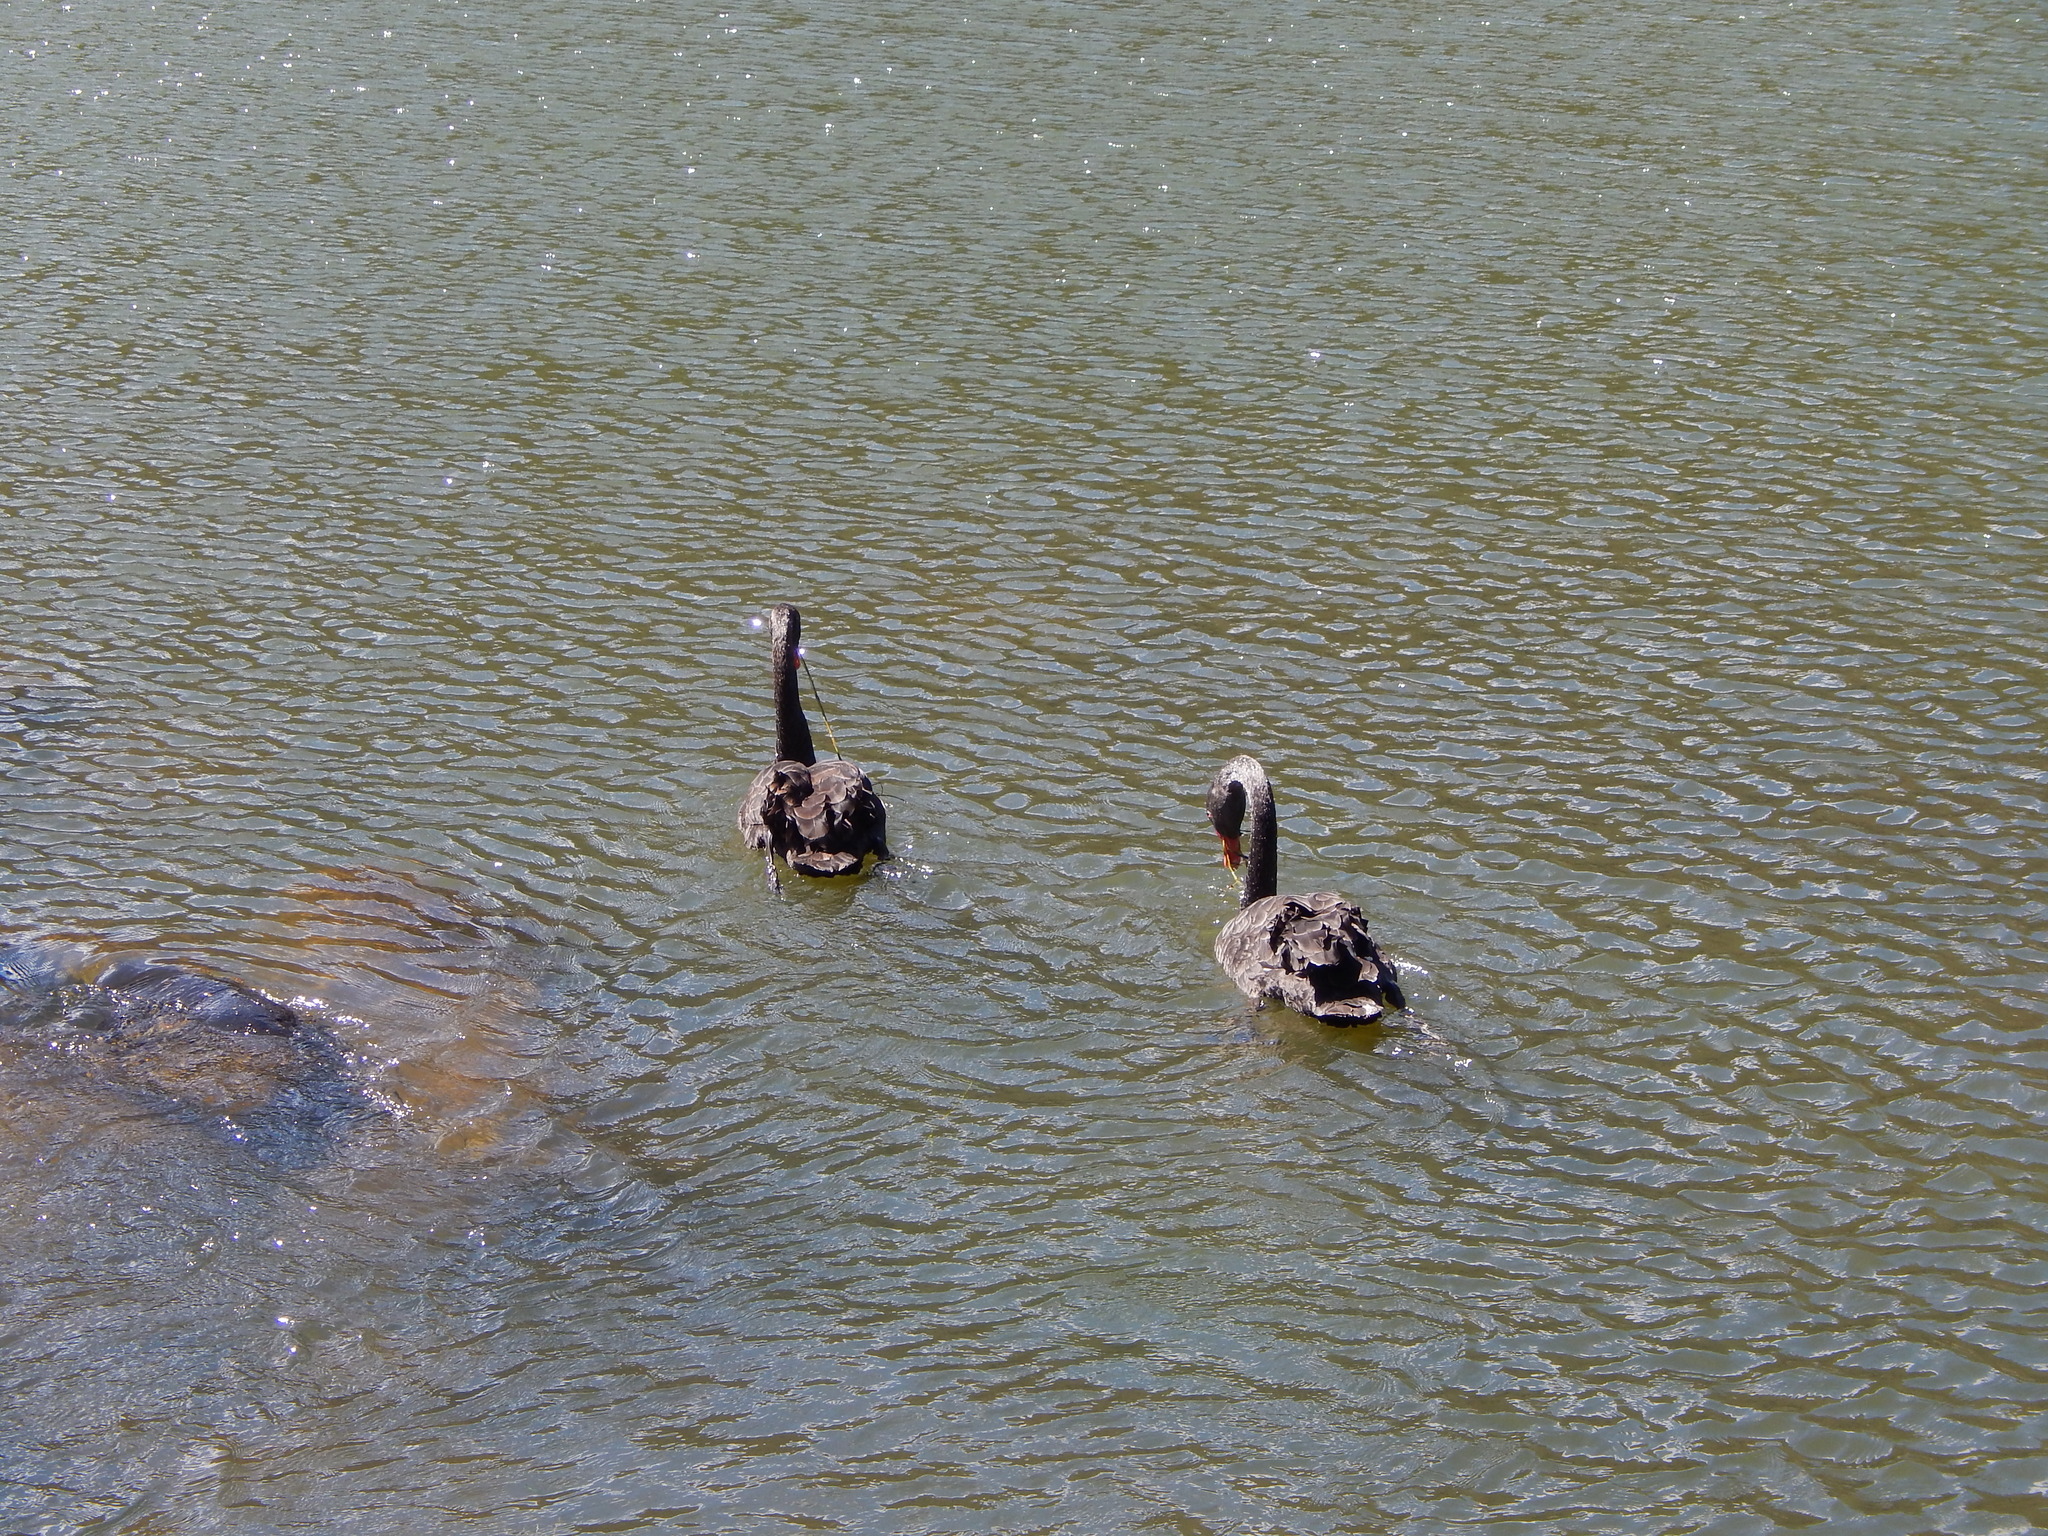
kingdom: Animalia
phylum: Chordata
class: Aves
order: Anseriformes
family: Anatidae
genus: Cygnus
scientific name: Cygnus atratus
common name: Black swan
